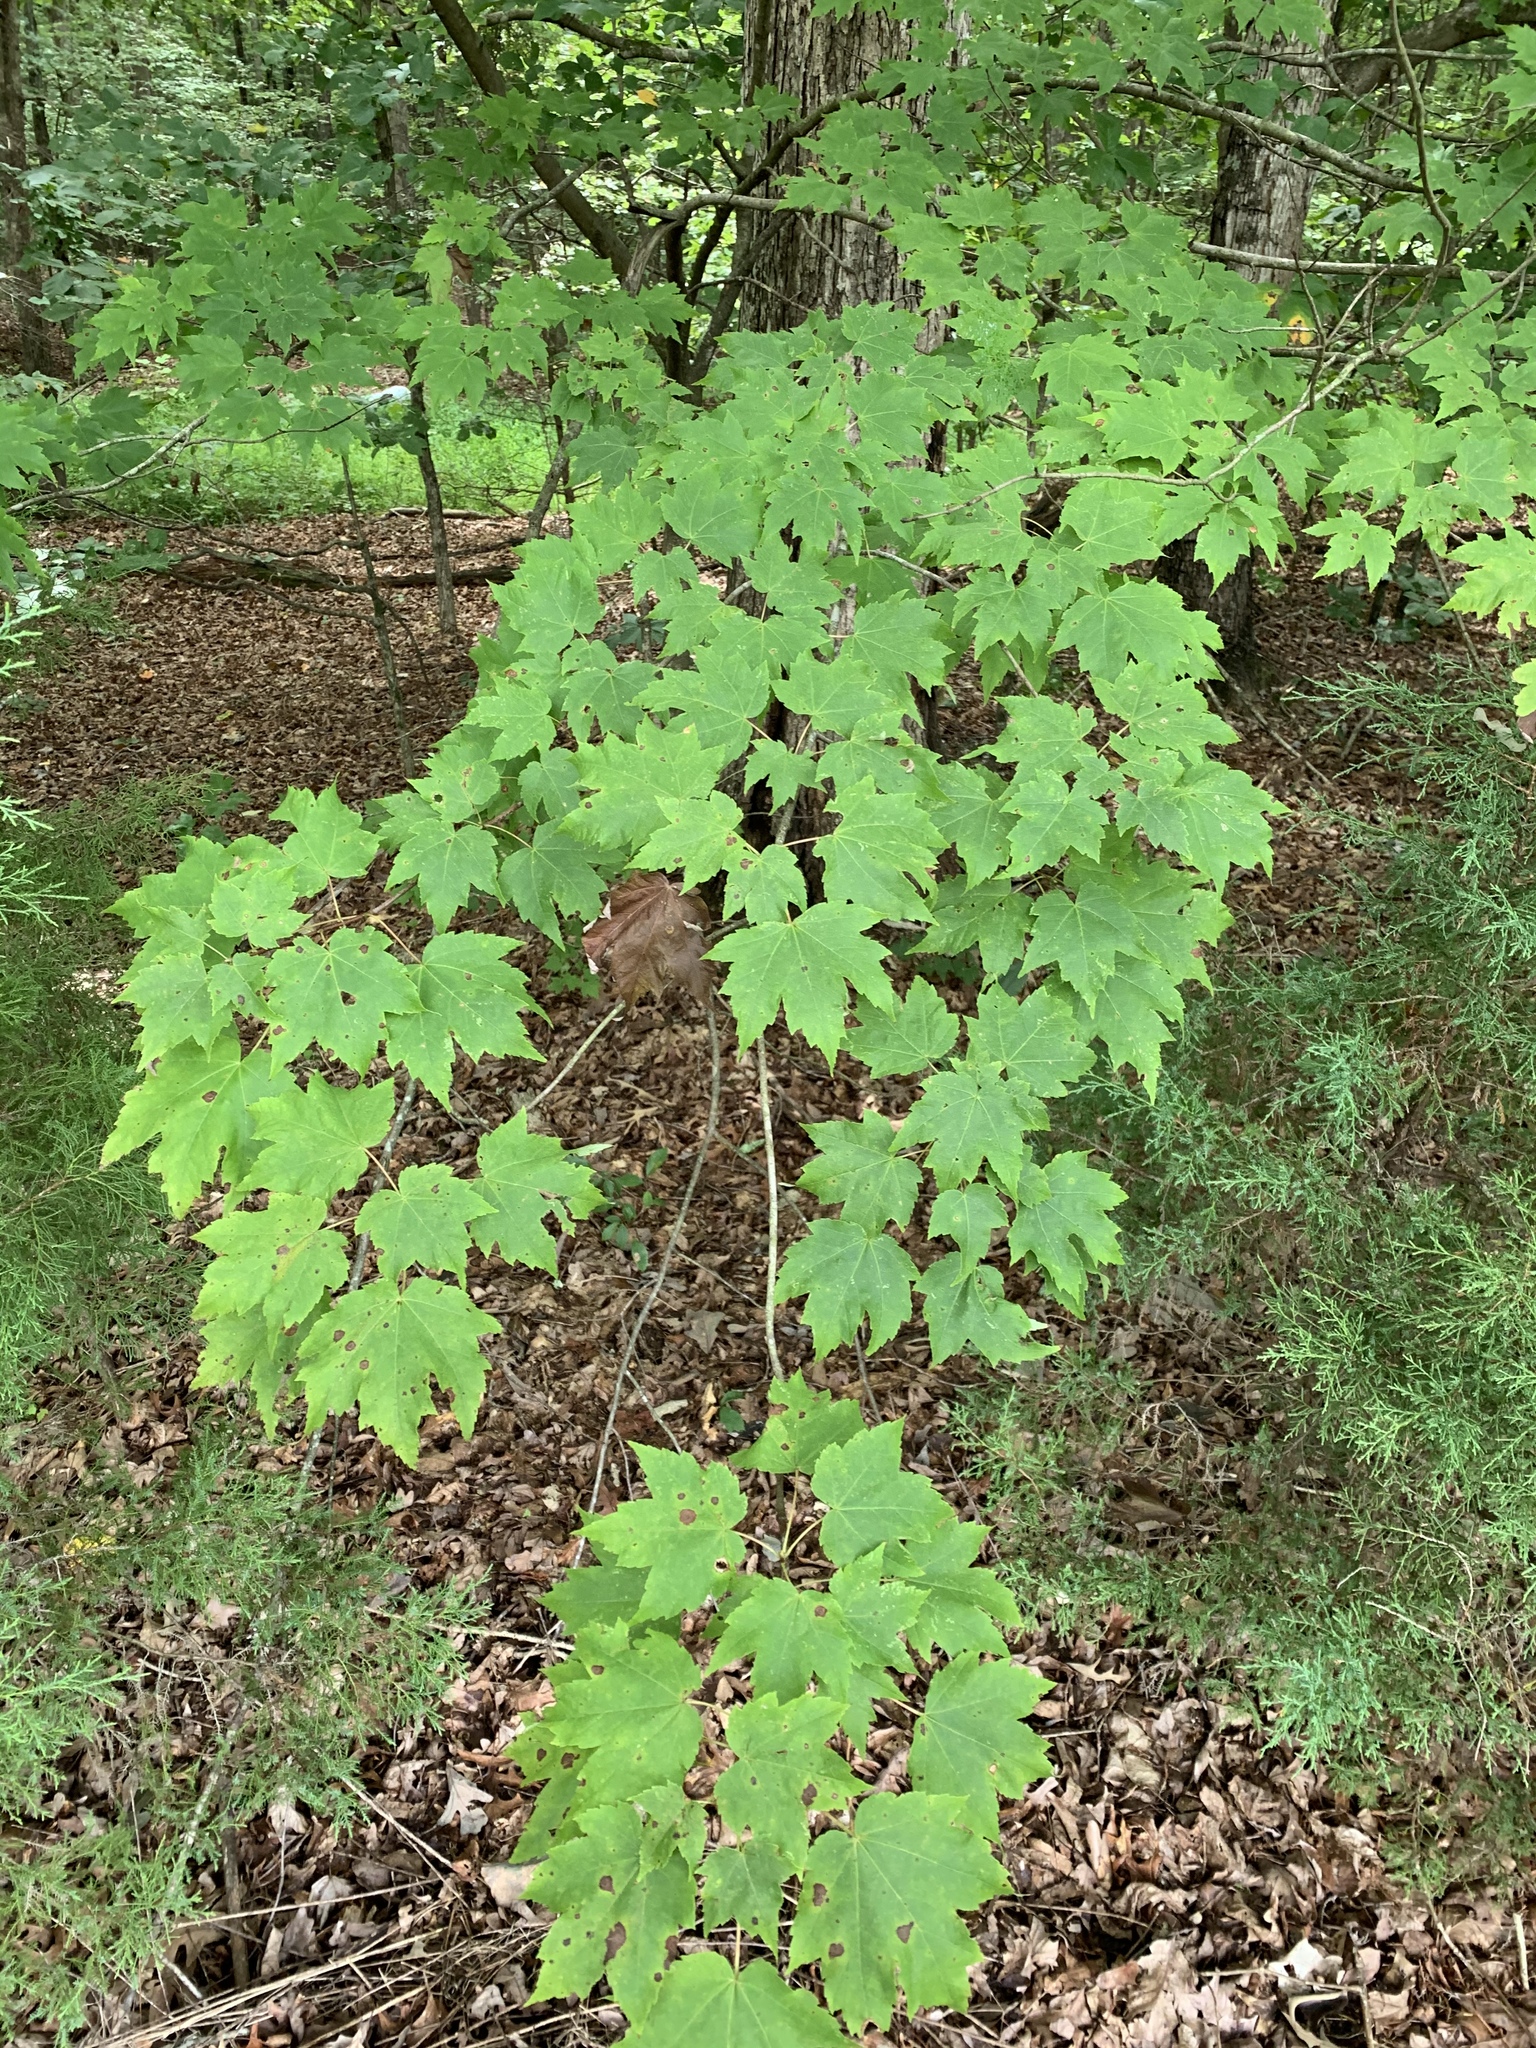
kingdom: Plantae
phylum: Tracheophyta
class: Magnoliopsida
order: Sapindales
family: Sapindaceae
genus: Acer
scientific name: Acer rubrum
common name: Red maple
